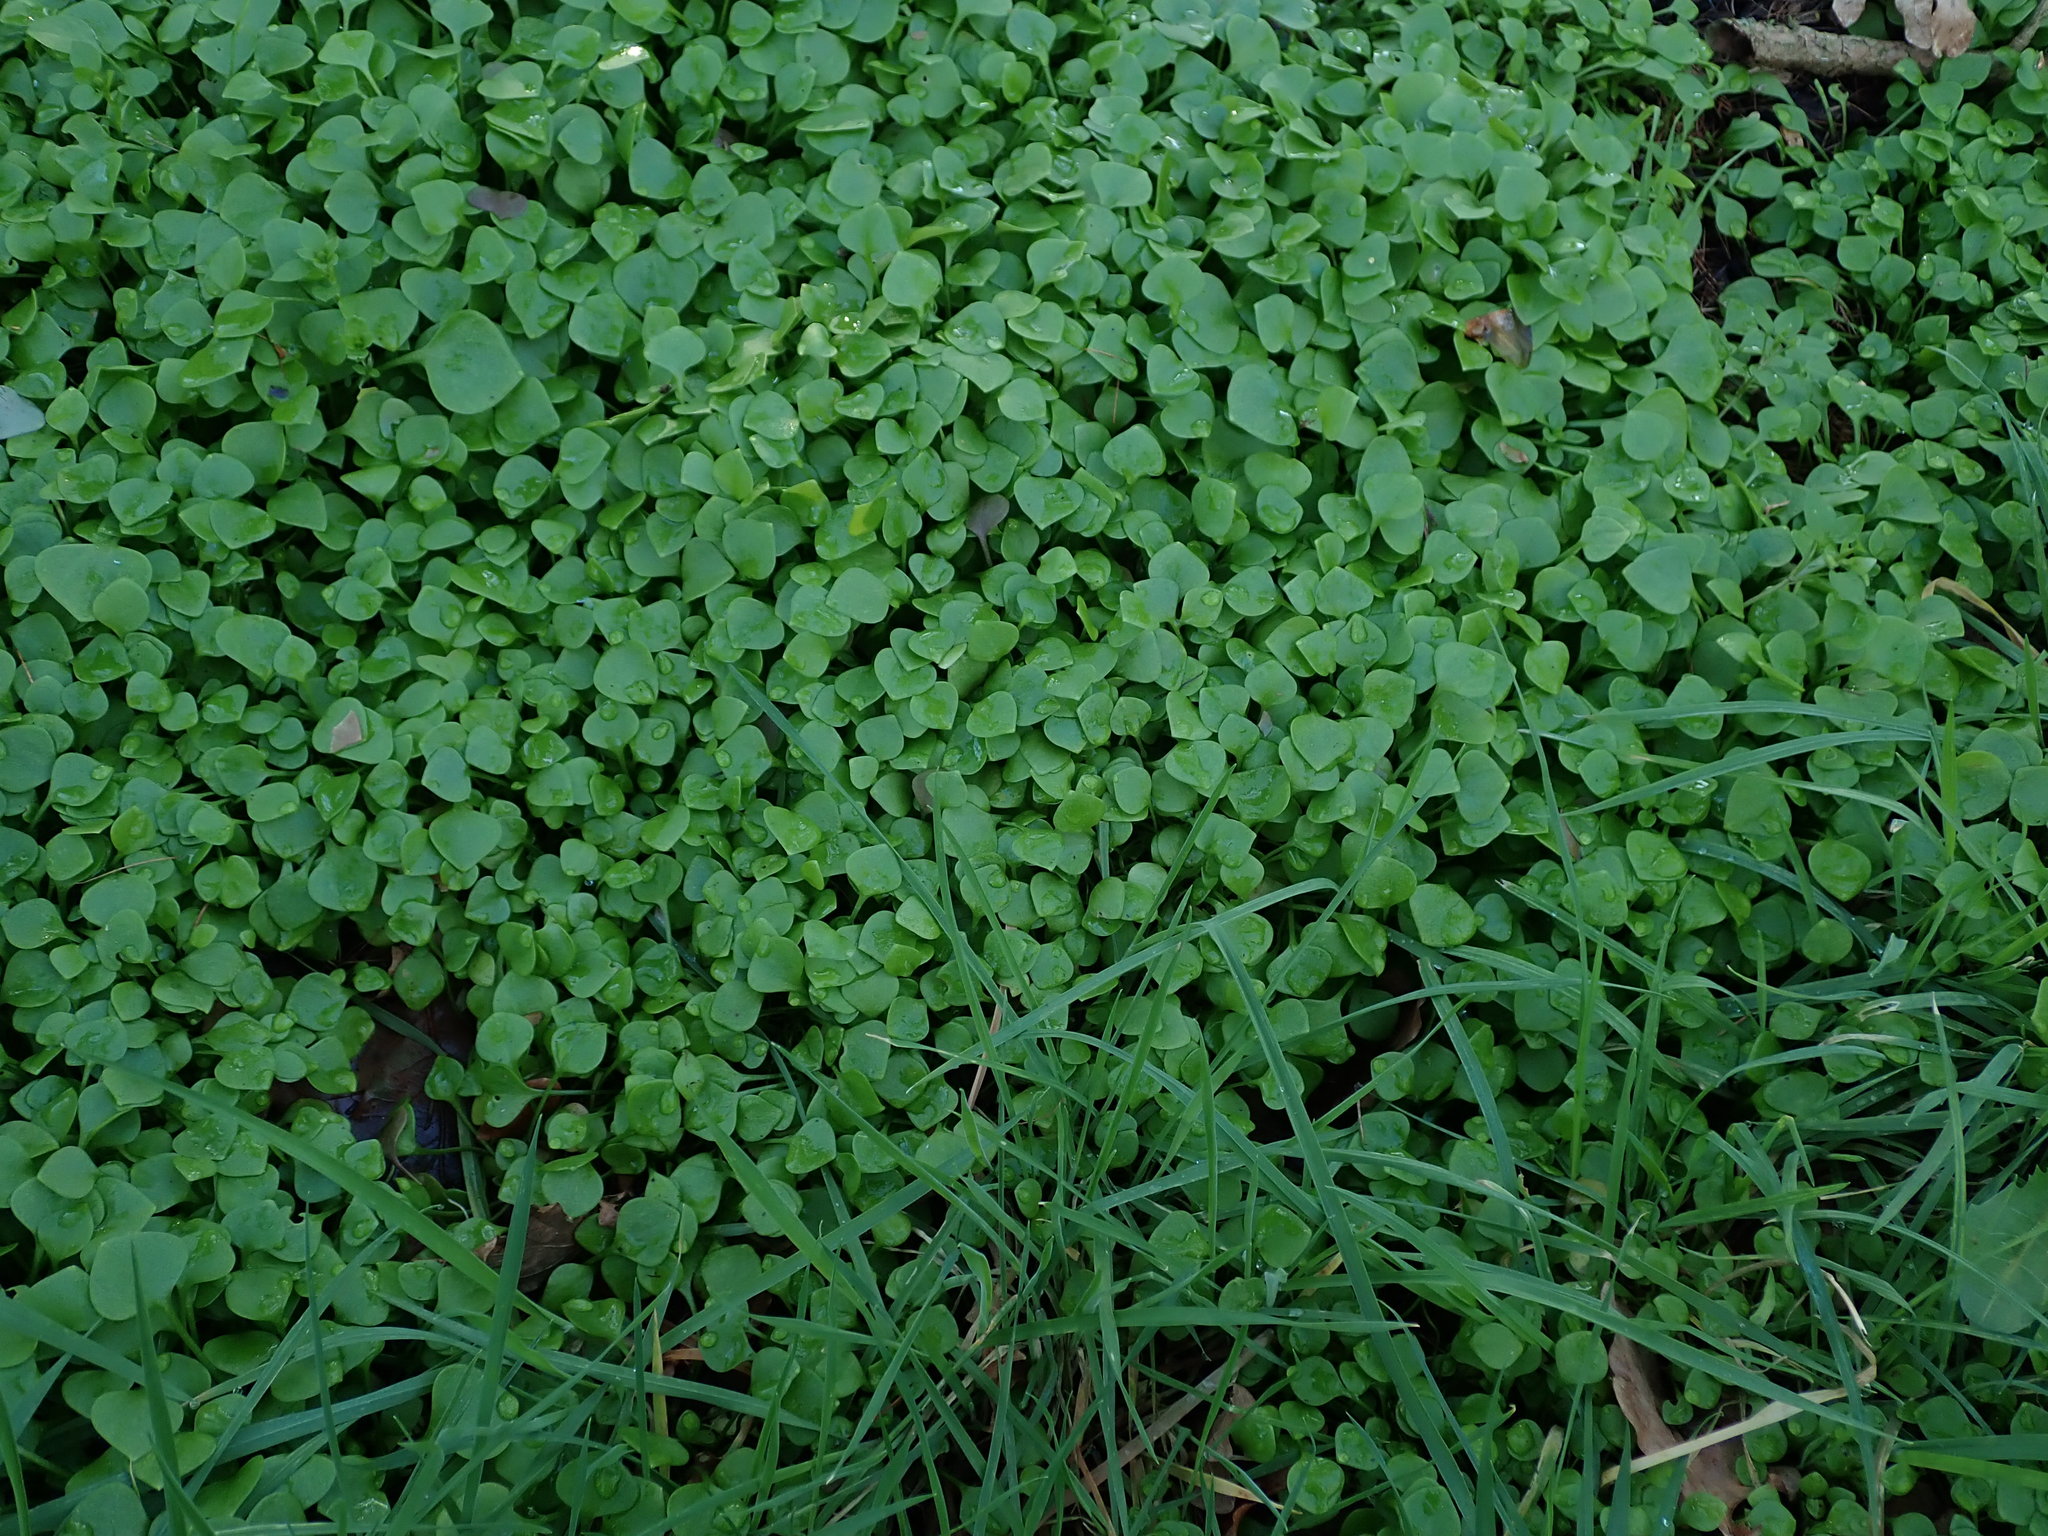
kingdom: Plantae
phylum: Tracheophyta
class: Magnoliopsida
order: Caryophyllales
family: Montiaceae
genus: Claytonia
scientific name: Claytonia perfoliata
